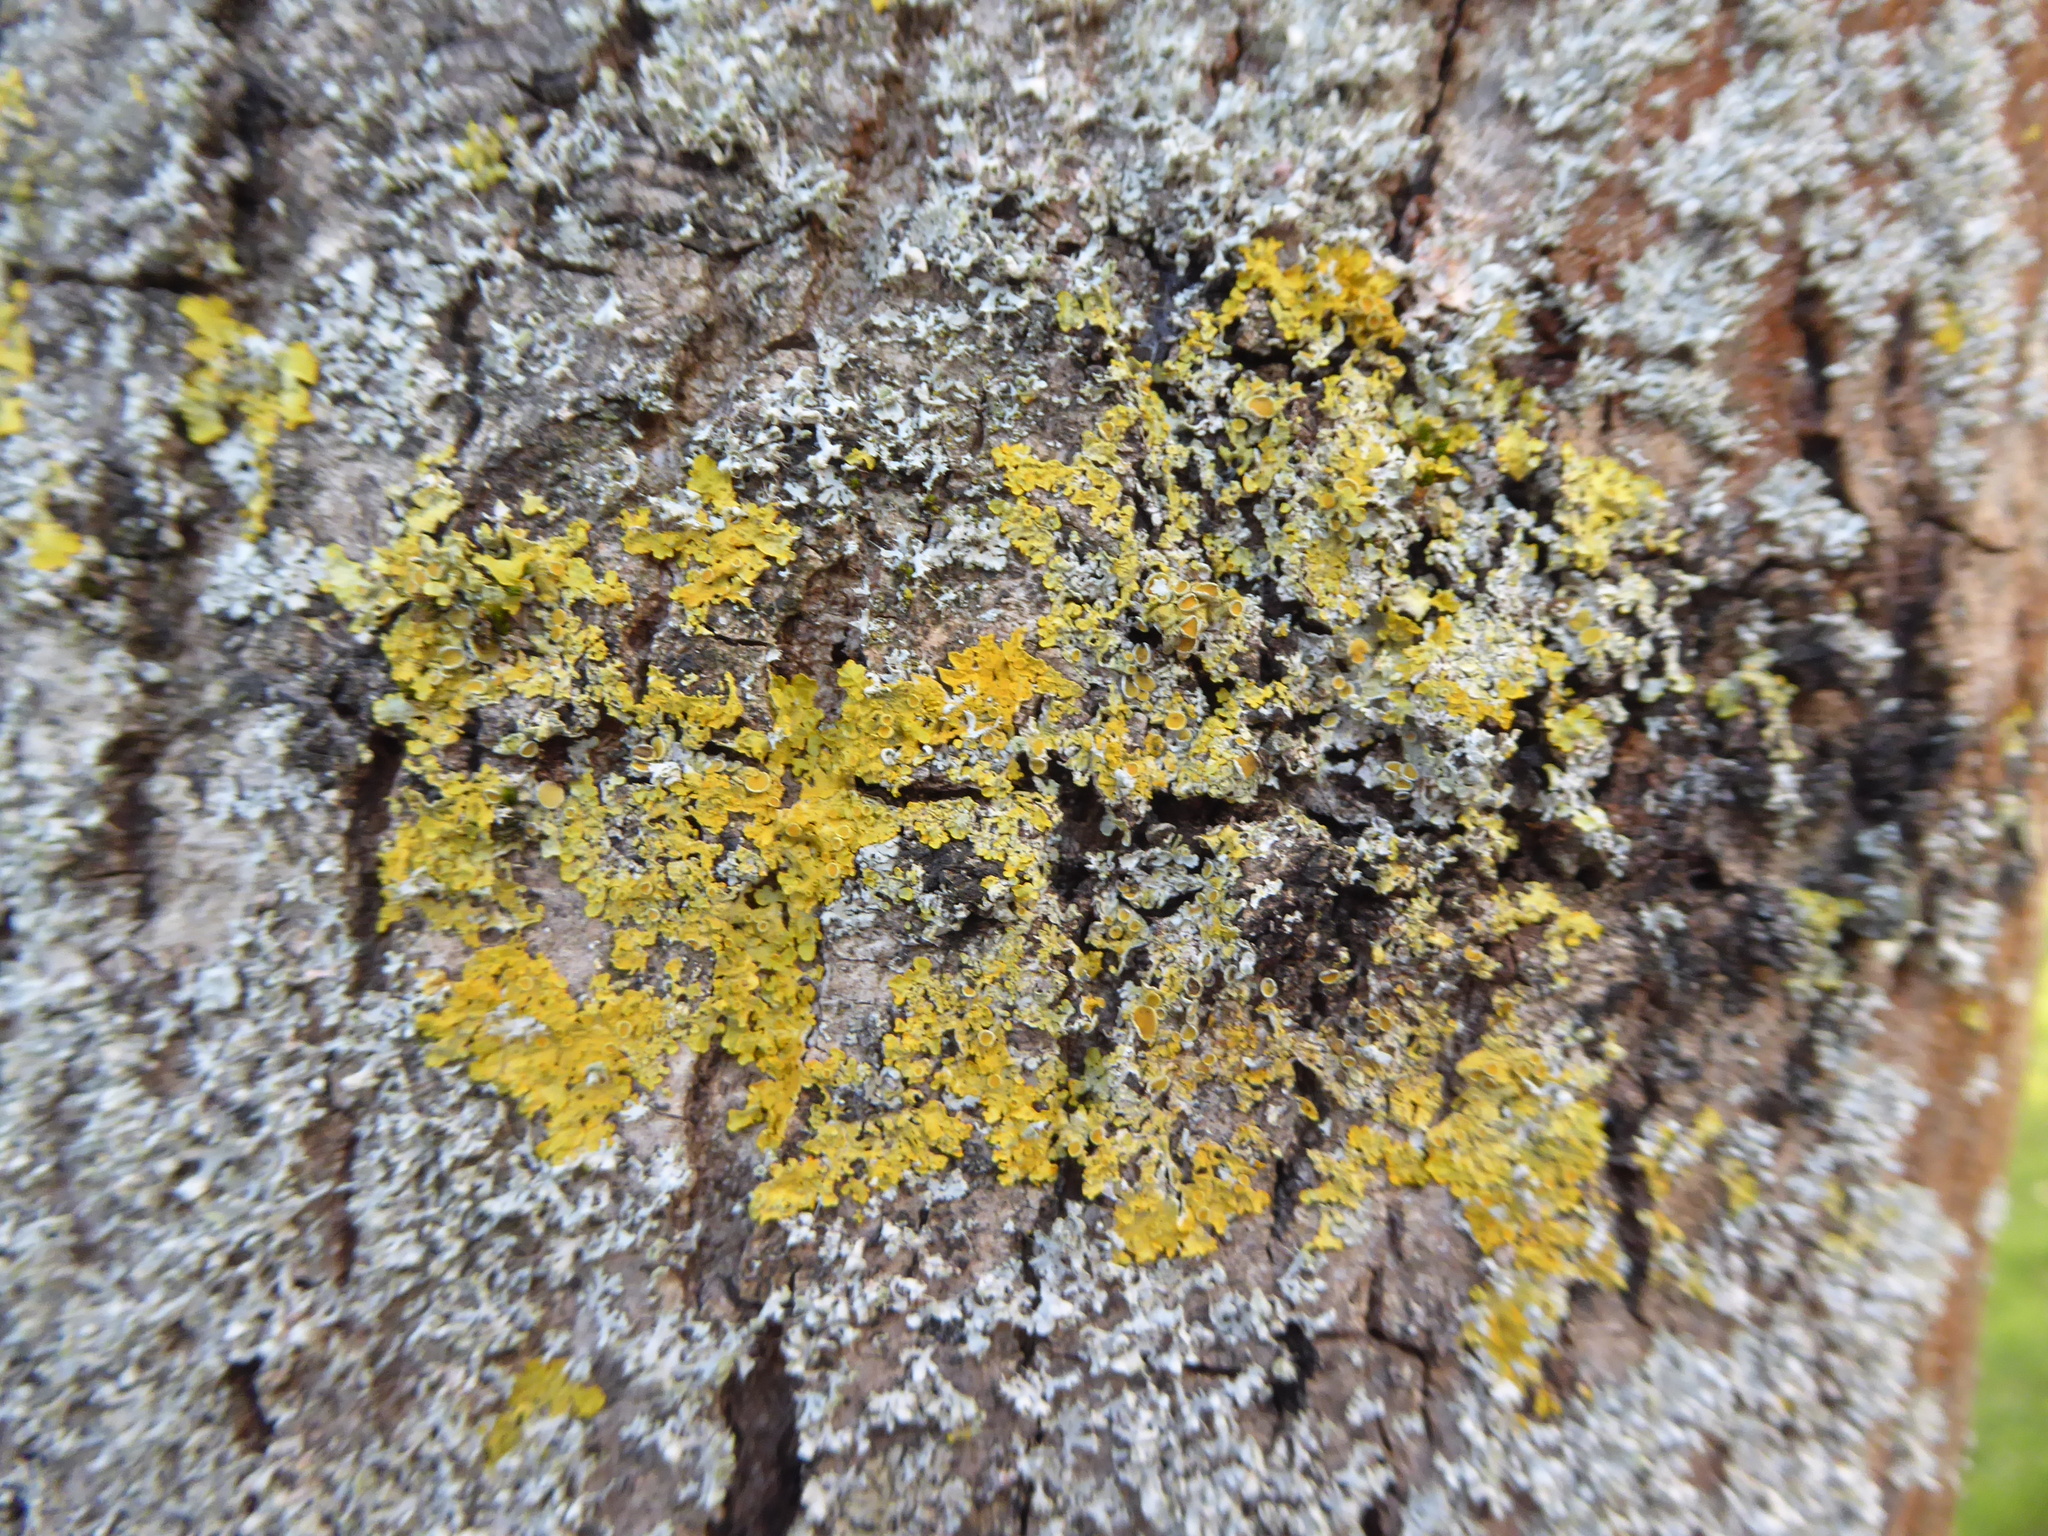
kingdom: Fungi
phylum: Ascomycota
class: Lecanoromycetes
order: Teloschistales
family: Teloschistaceae
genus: Xanthoria
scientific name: Xanthoria parietina
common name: Common orange lichen
